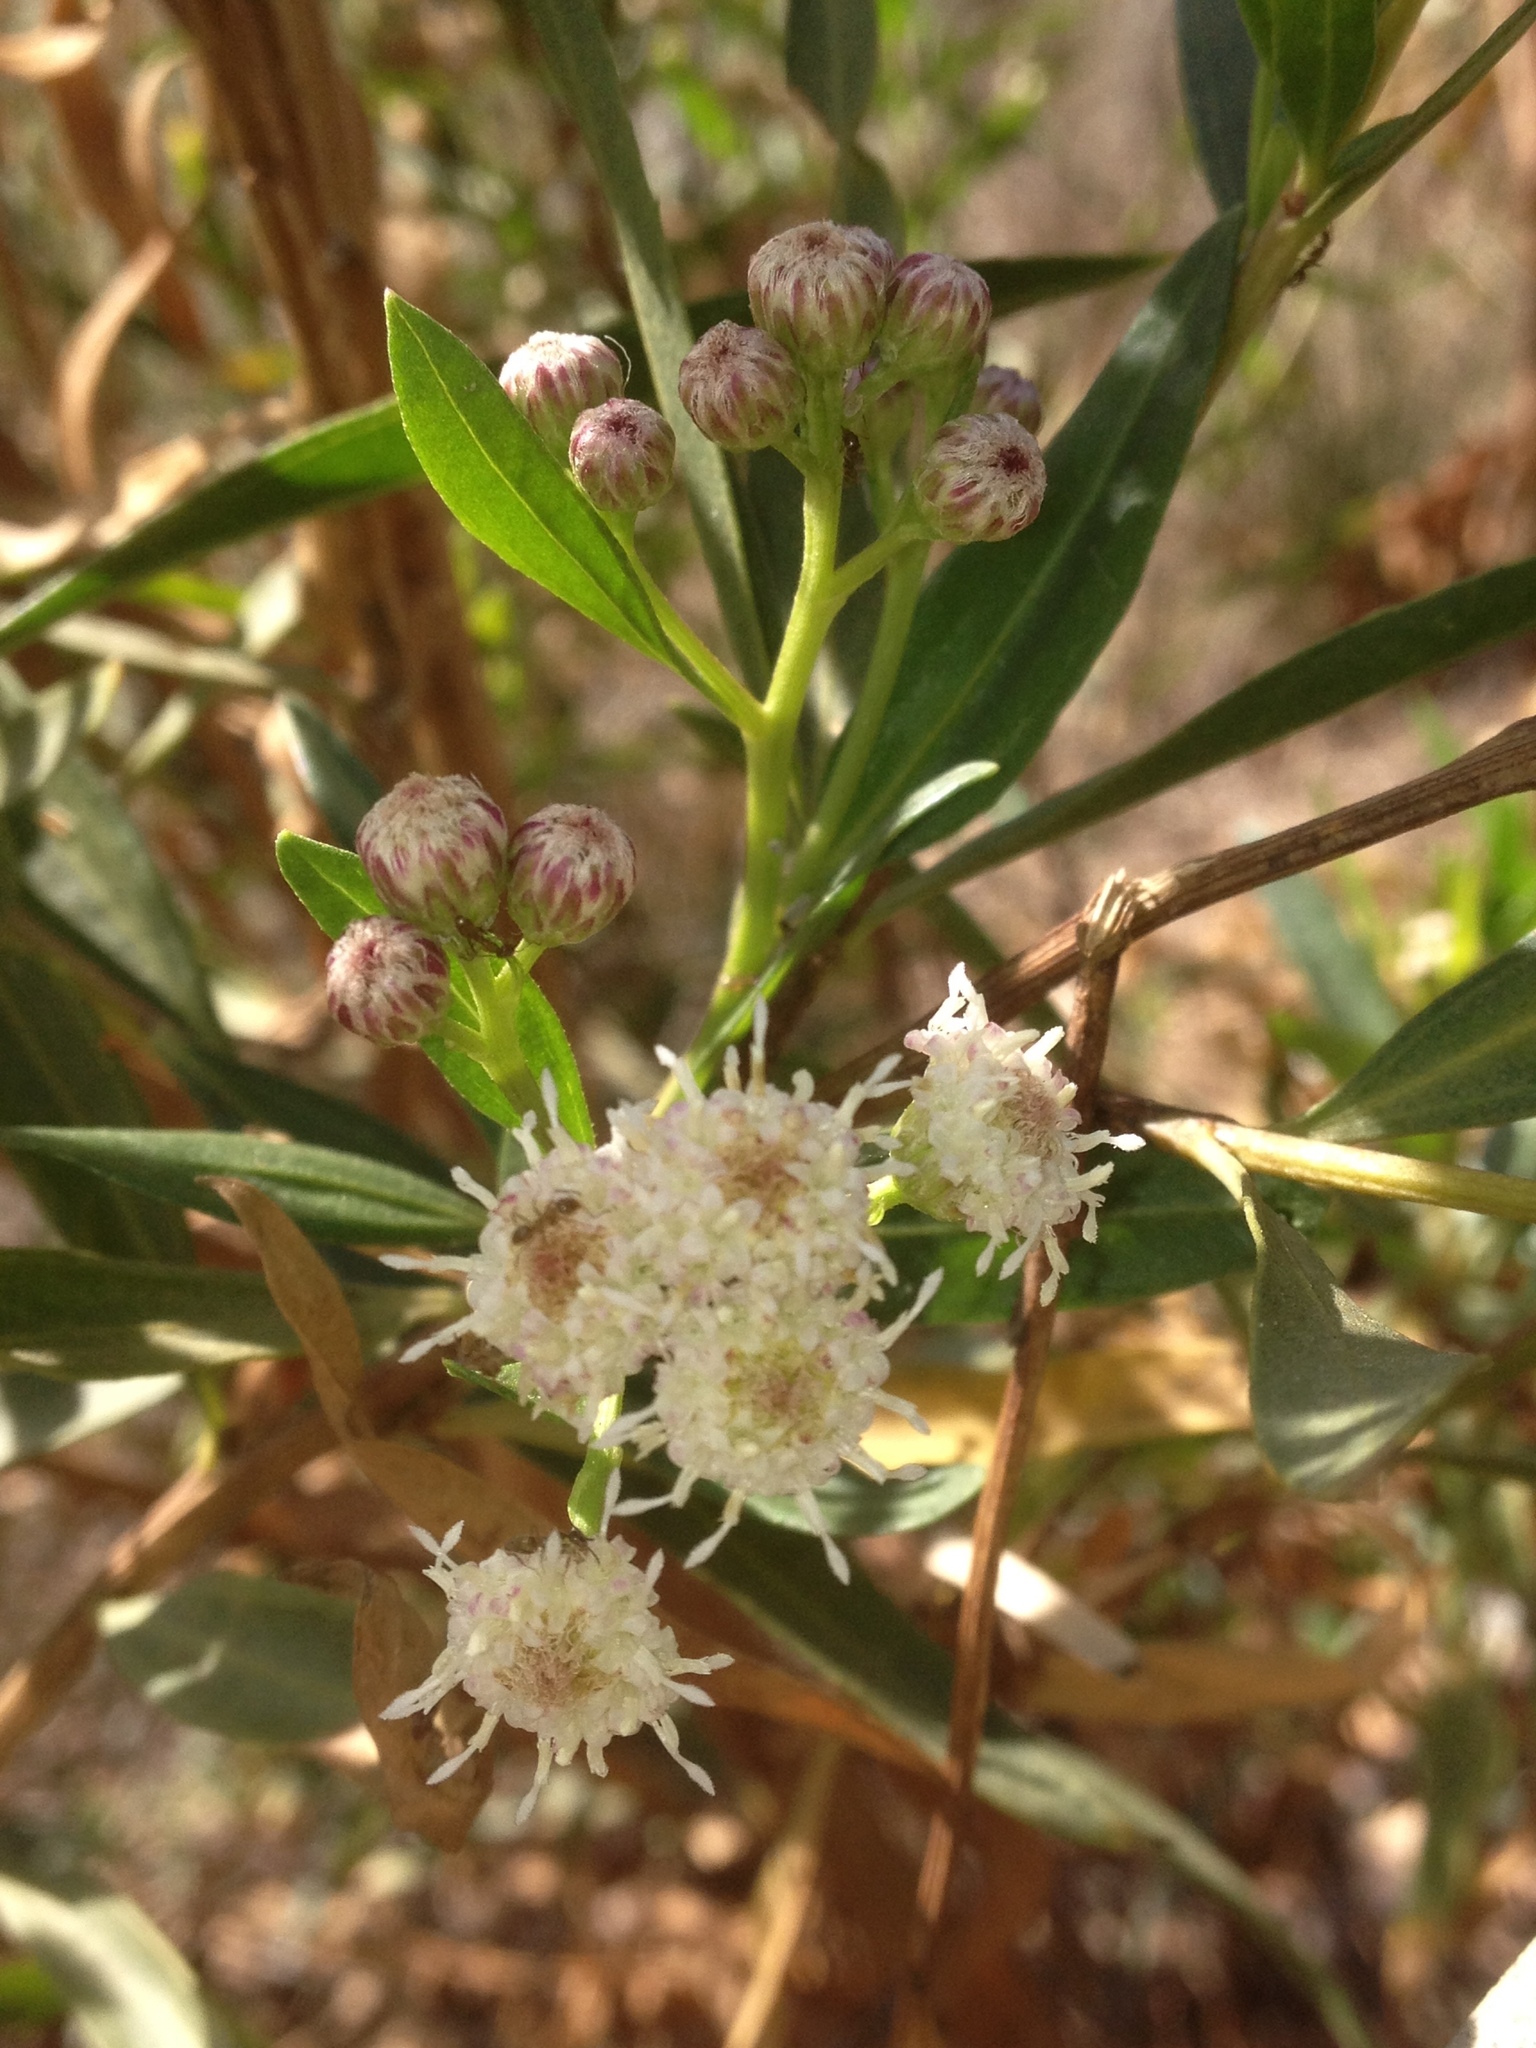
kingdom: Plantae
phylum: Tracheophyta
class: Magnoliopsida
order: Asterales
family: Asteraceae
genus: Baccharis
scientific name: Baccharis salicifolia
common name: Sticky baccharis
